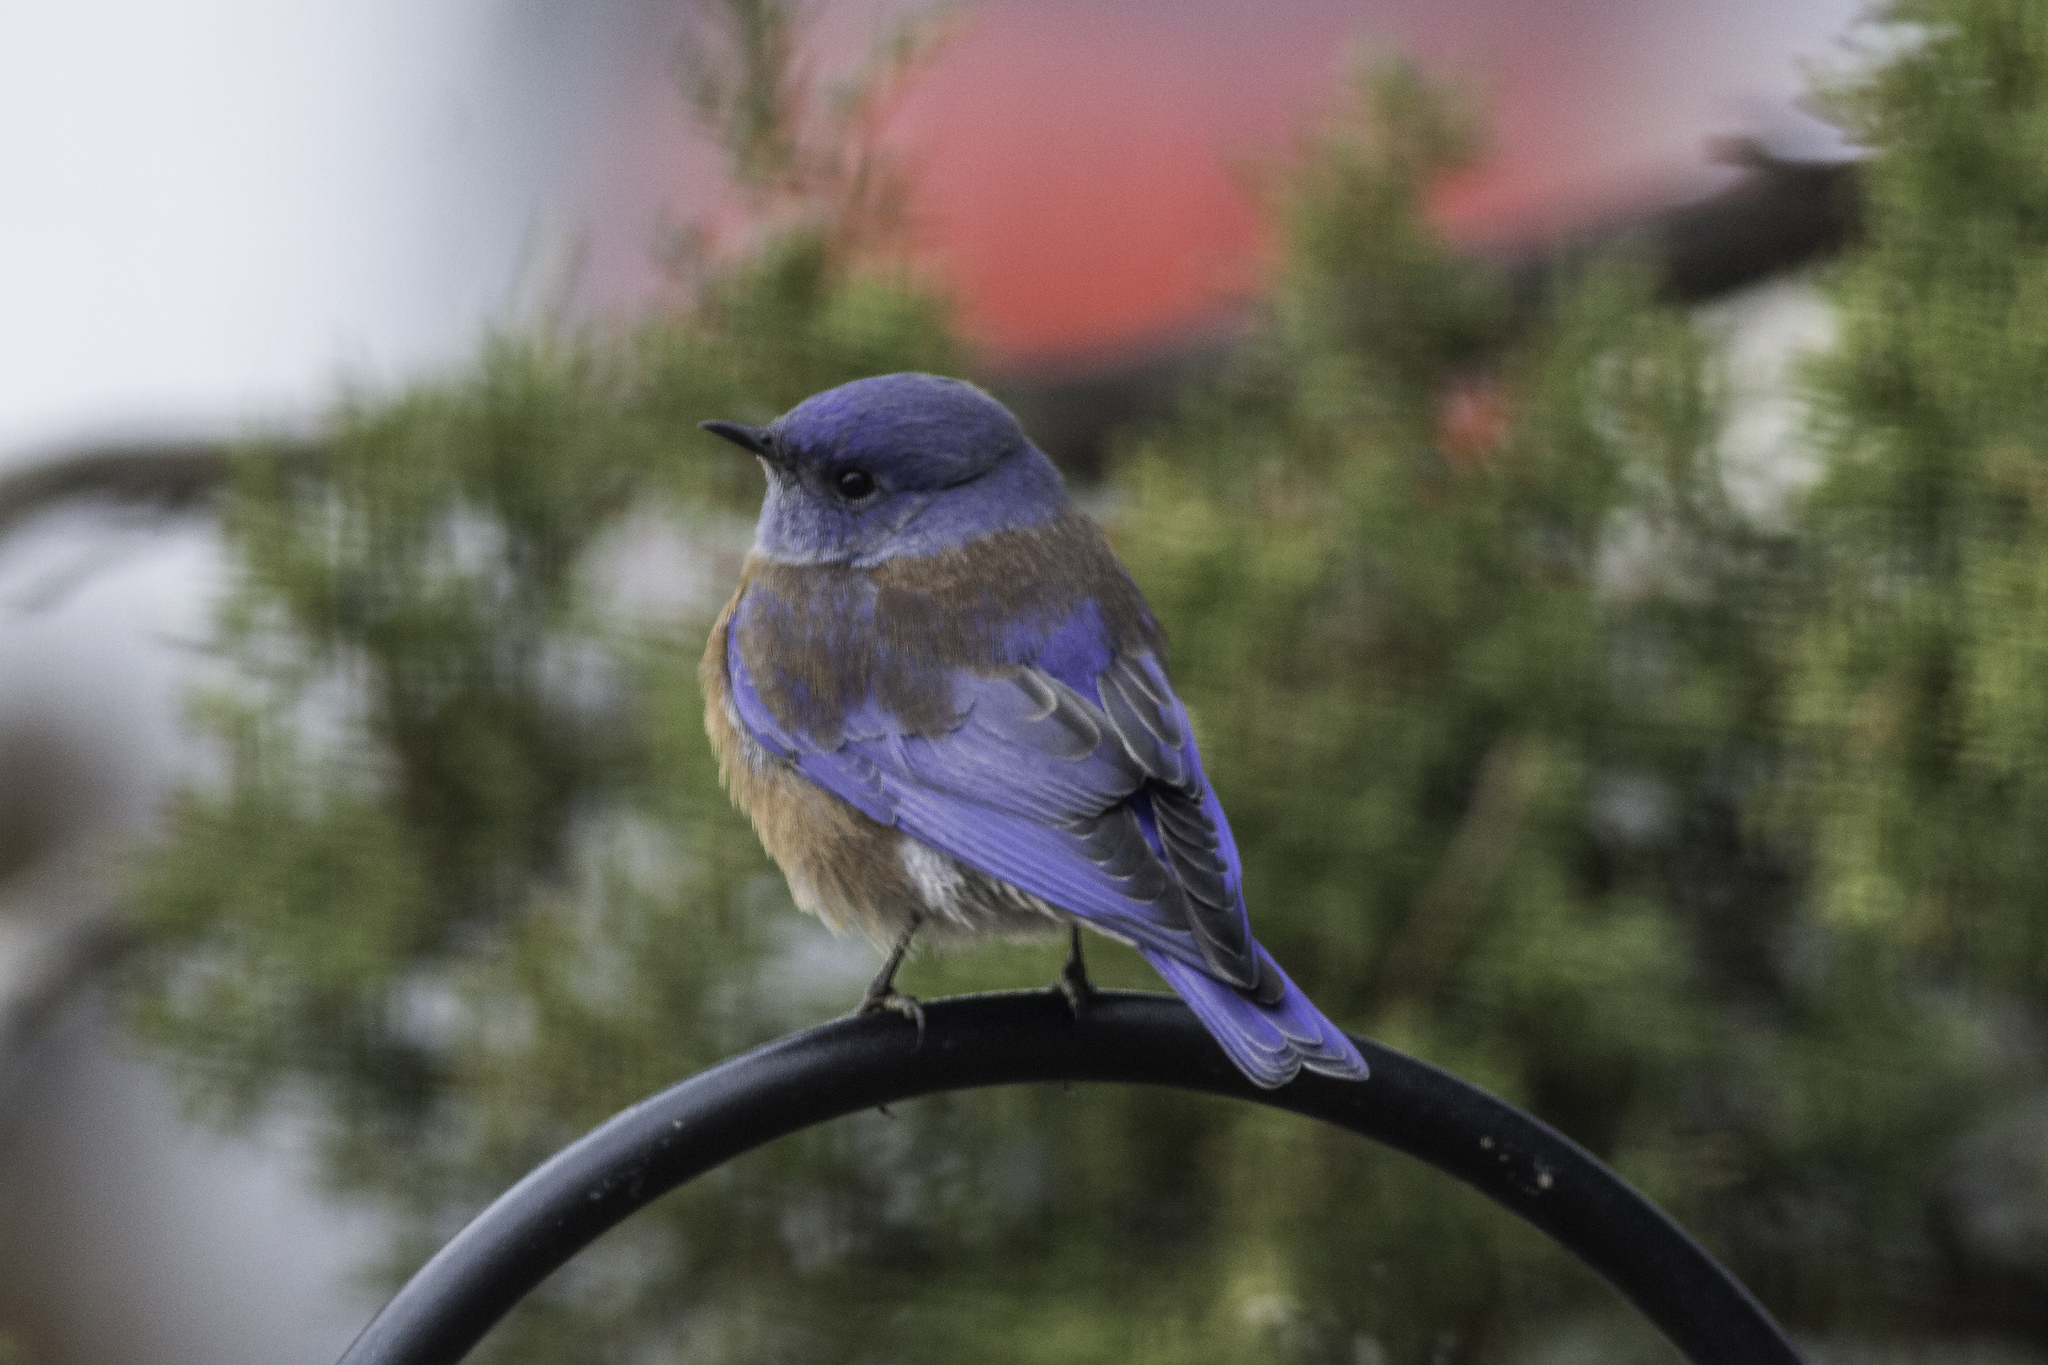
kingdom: Animalia
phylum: Chordata
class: Aves
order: Passeriformes
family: Turdidae
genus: Sialia
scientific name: Sialia mexicana
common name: Western bluebird
